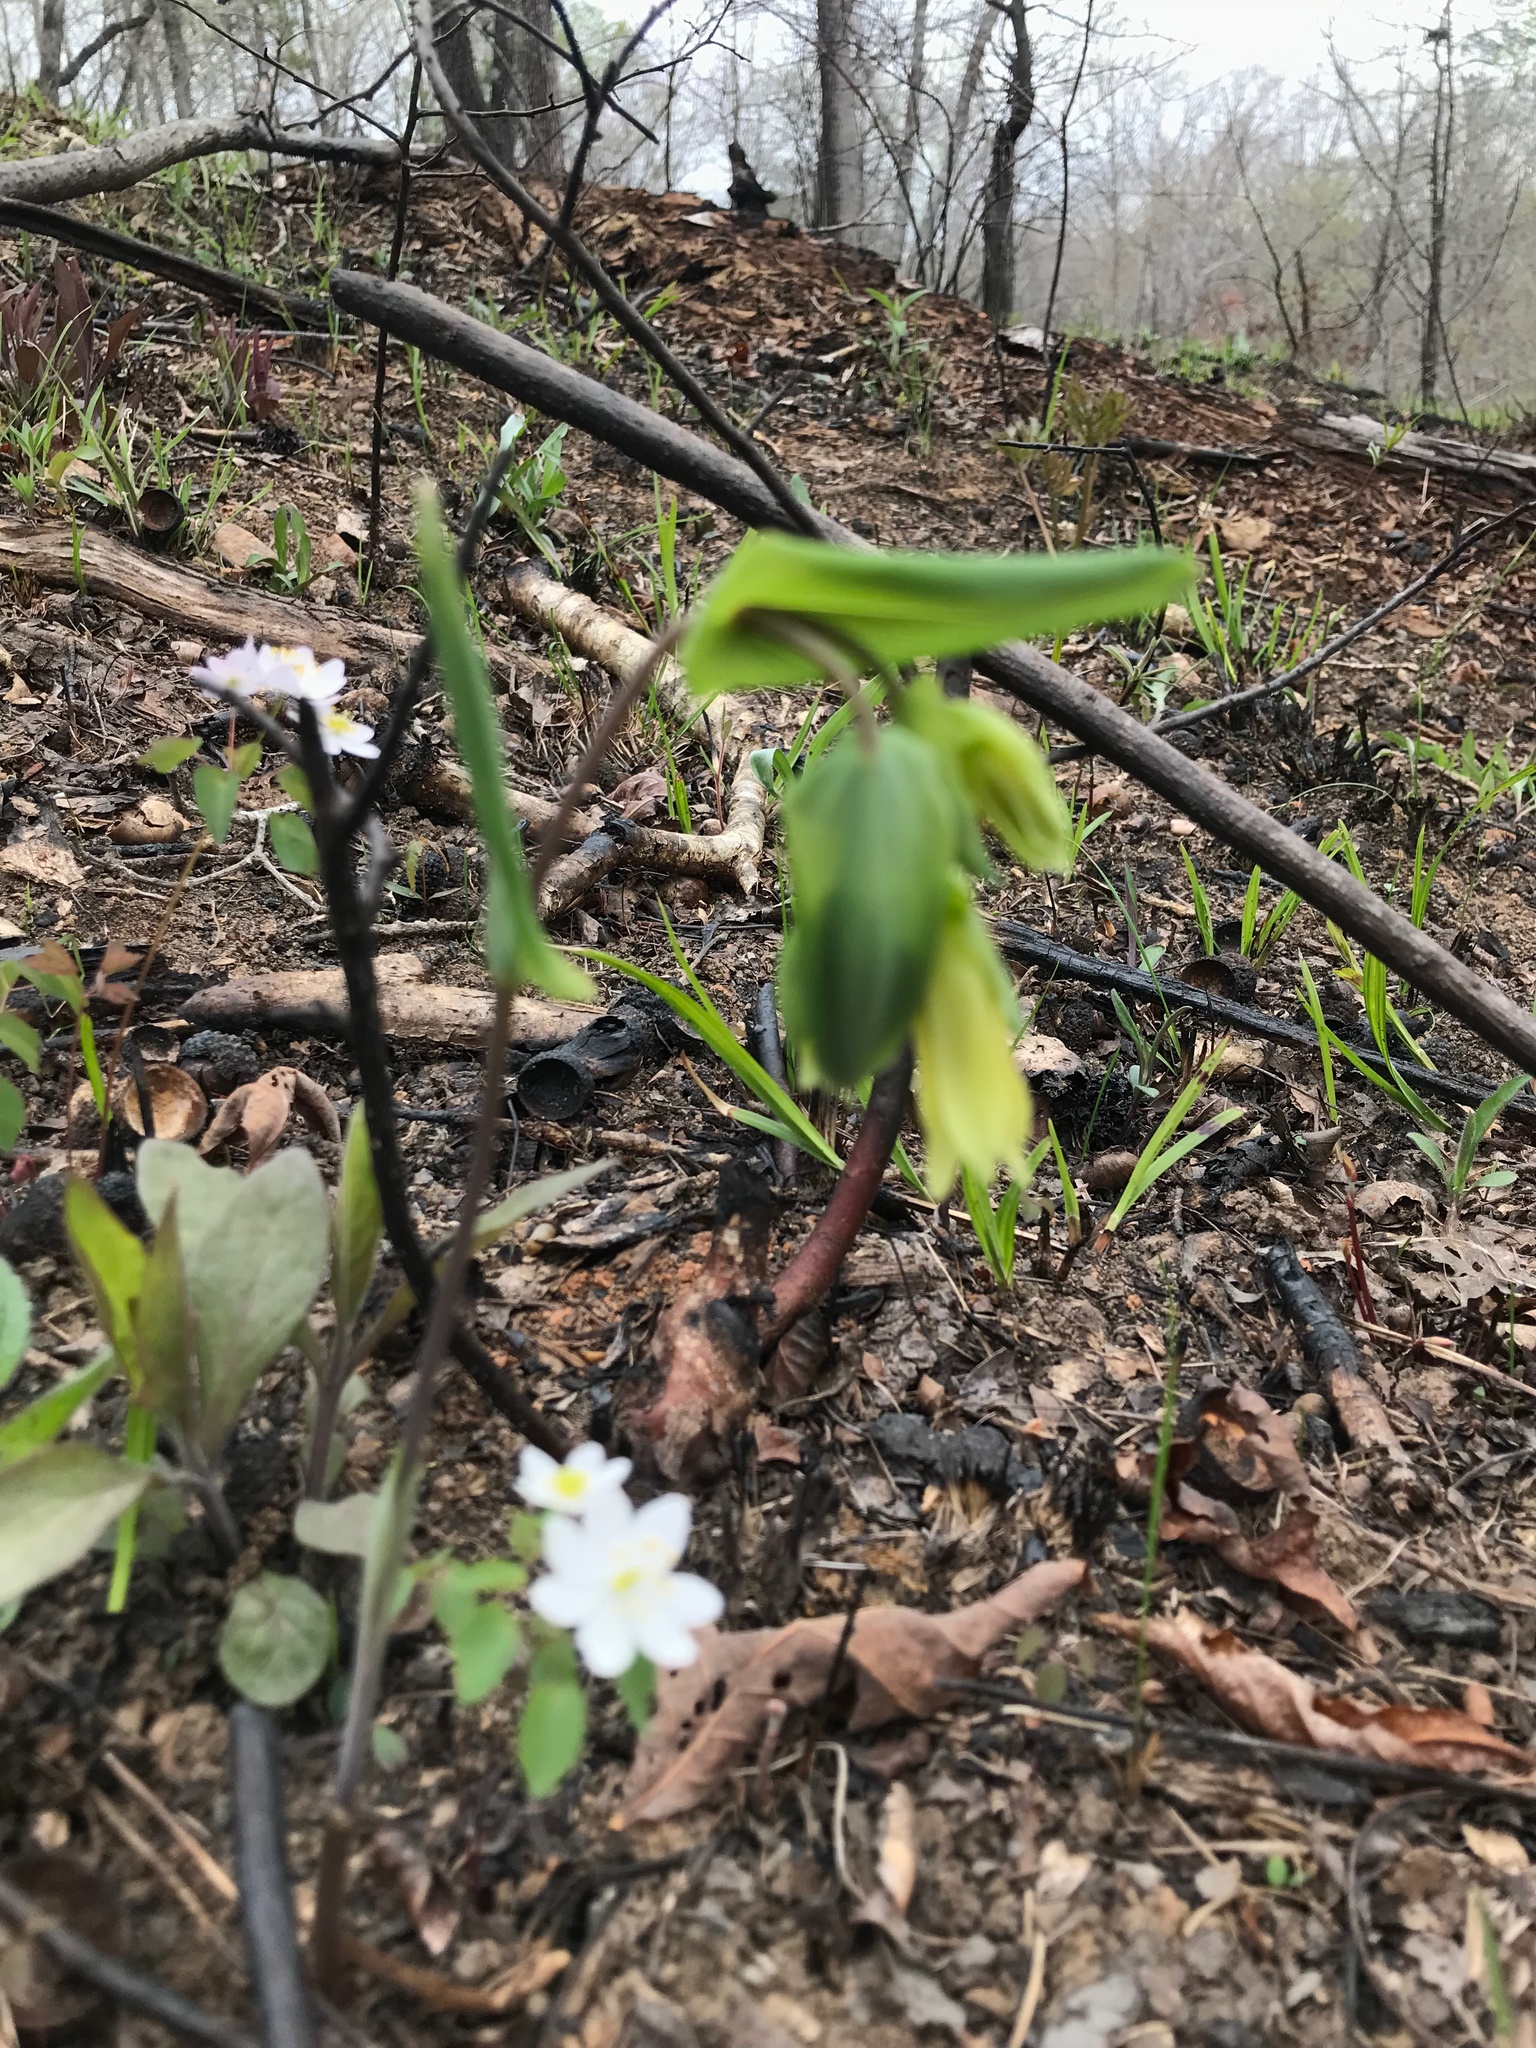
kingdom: Plantae
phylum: Tracheophyta
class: Liliopsida
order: Liliales
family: Colchicaceae
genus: Uvularia
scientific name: Uvularia perfoliata
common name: Perfoliate bellwort
